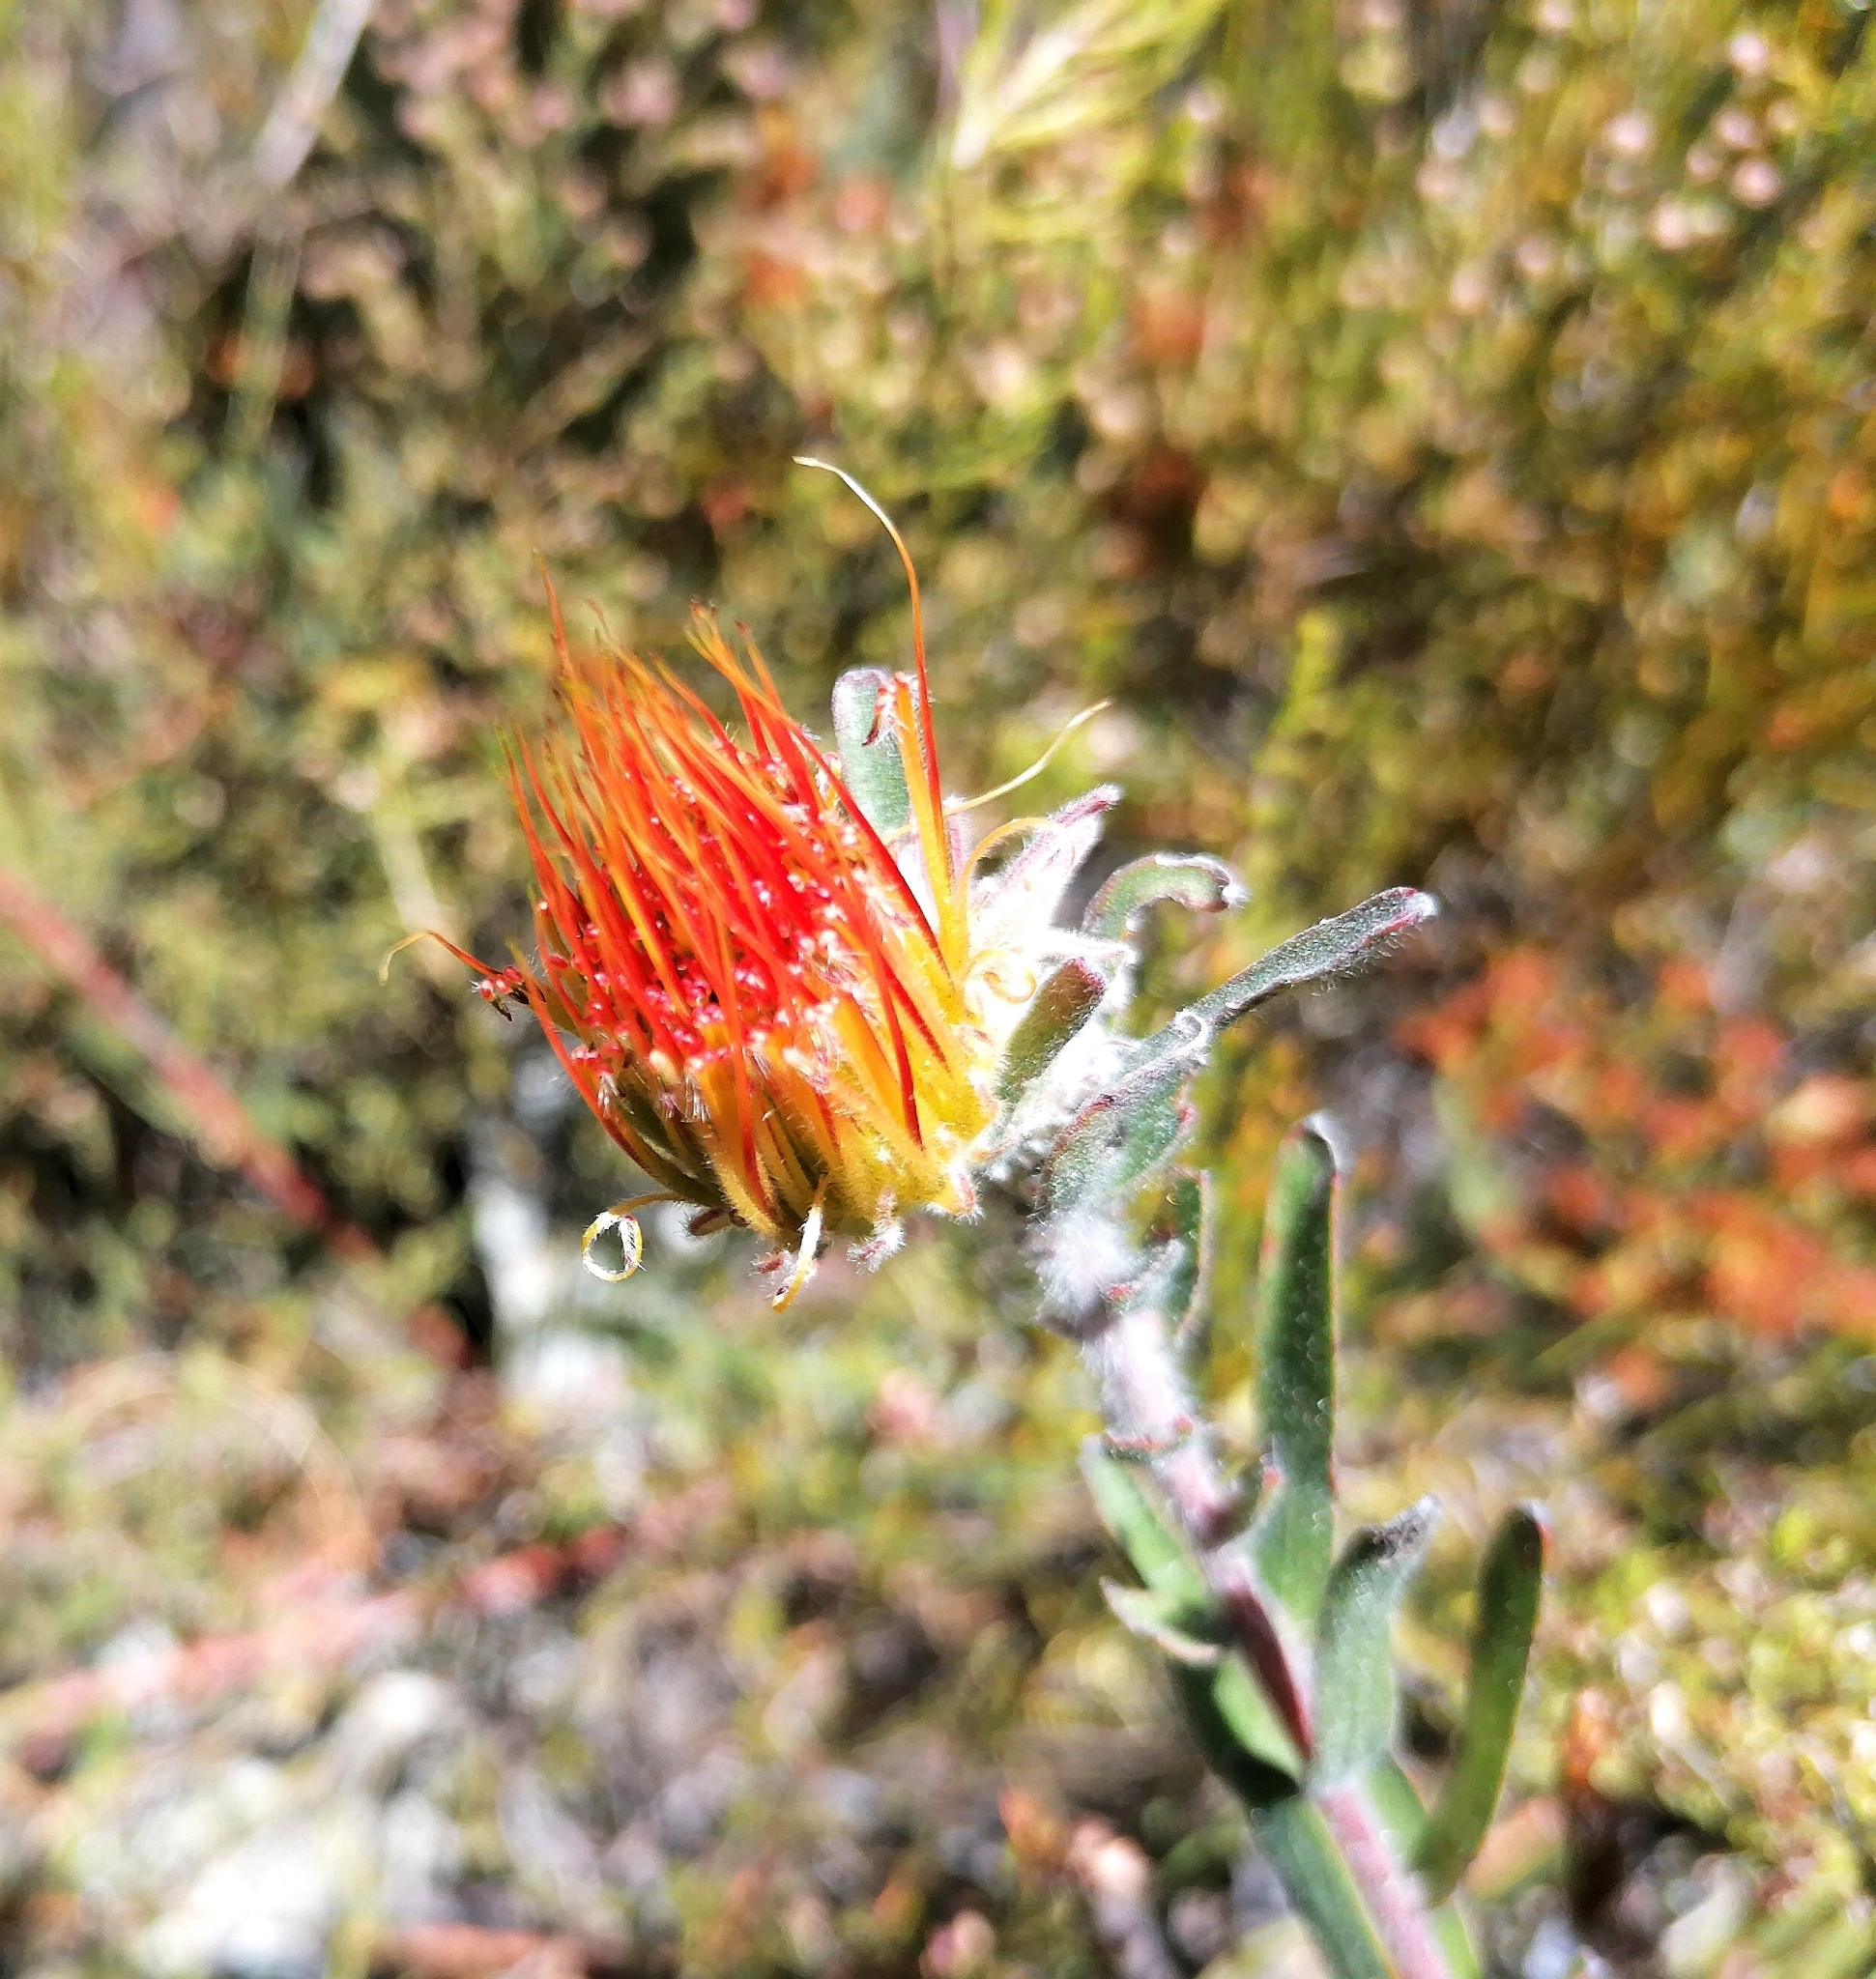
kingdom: Plantae
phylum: Tracheophyta
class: Magnoliopsida
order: Proteales
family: Proteaceae
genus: Leucospermum
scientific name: Leucospermum gracile
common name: Hermanus pincushion
